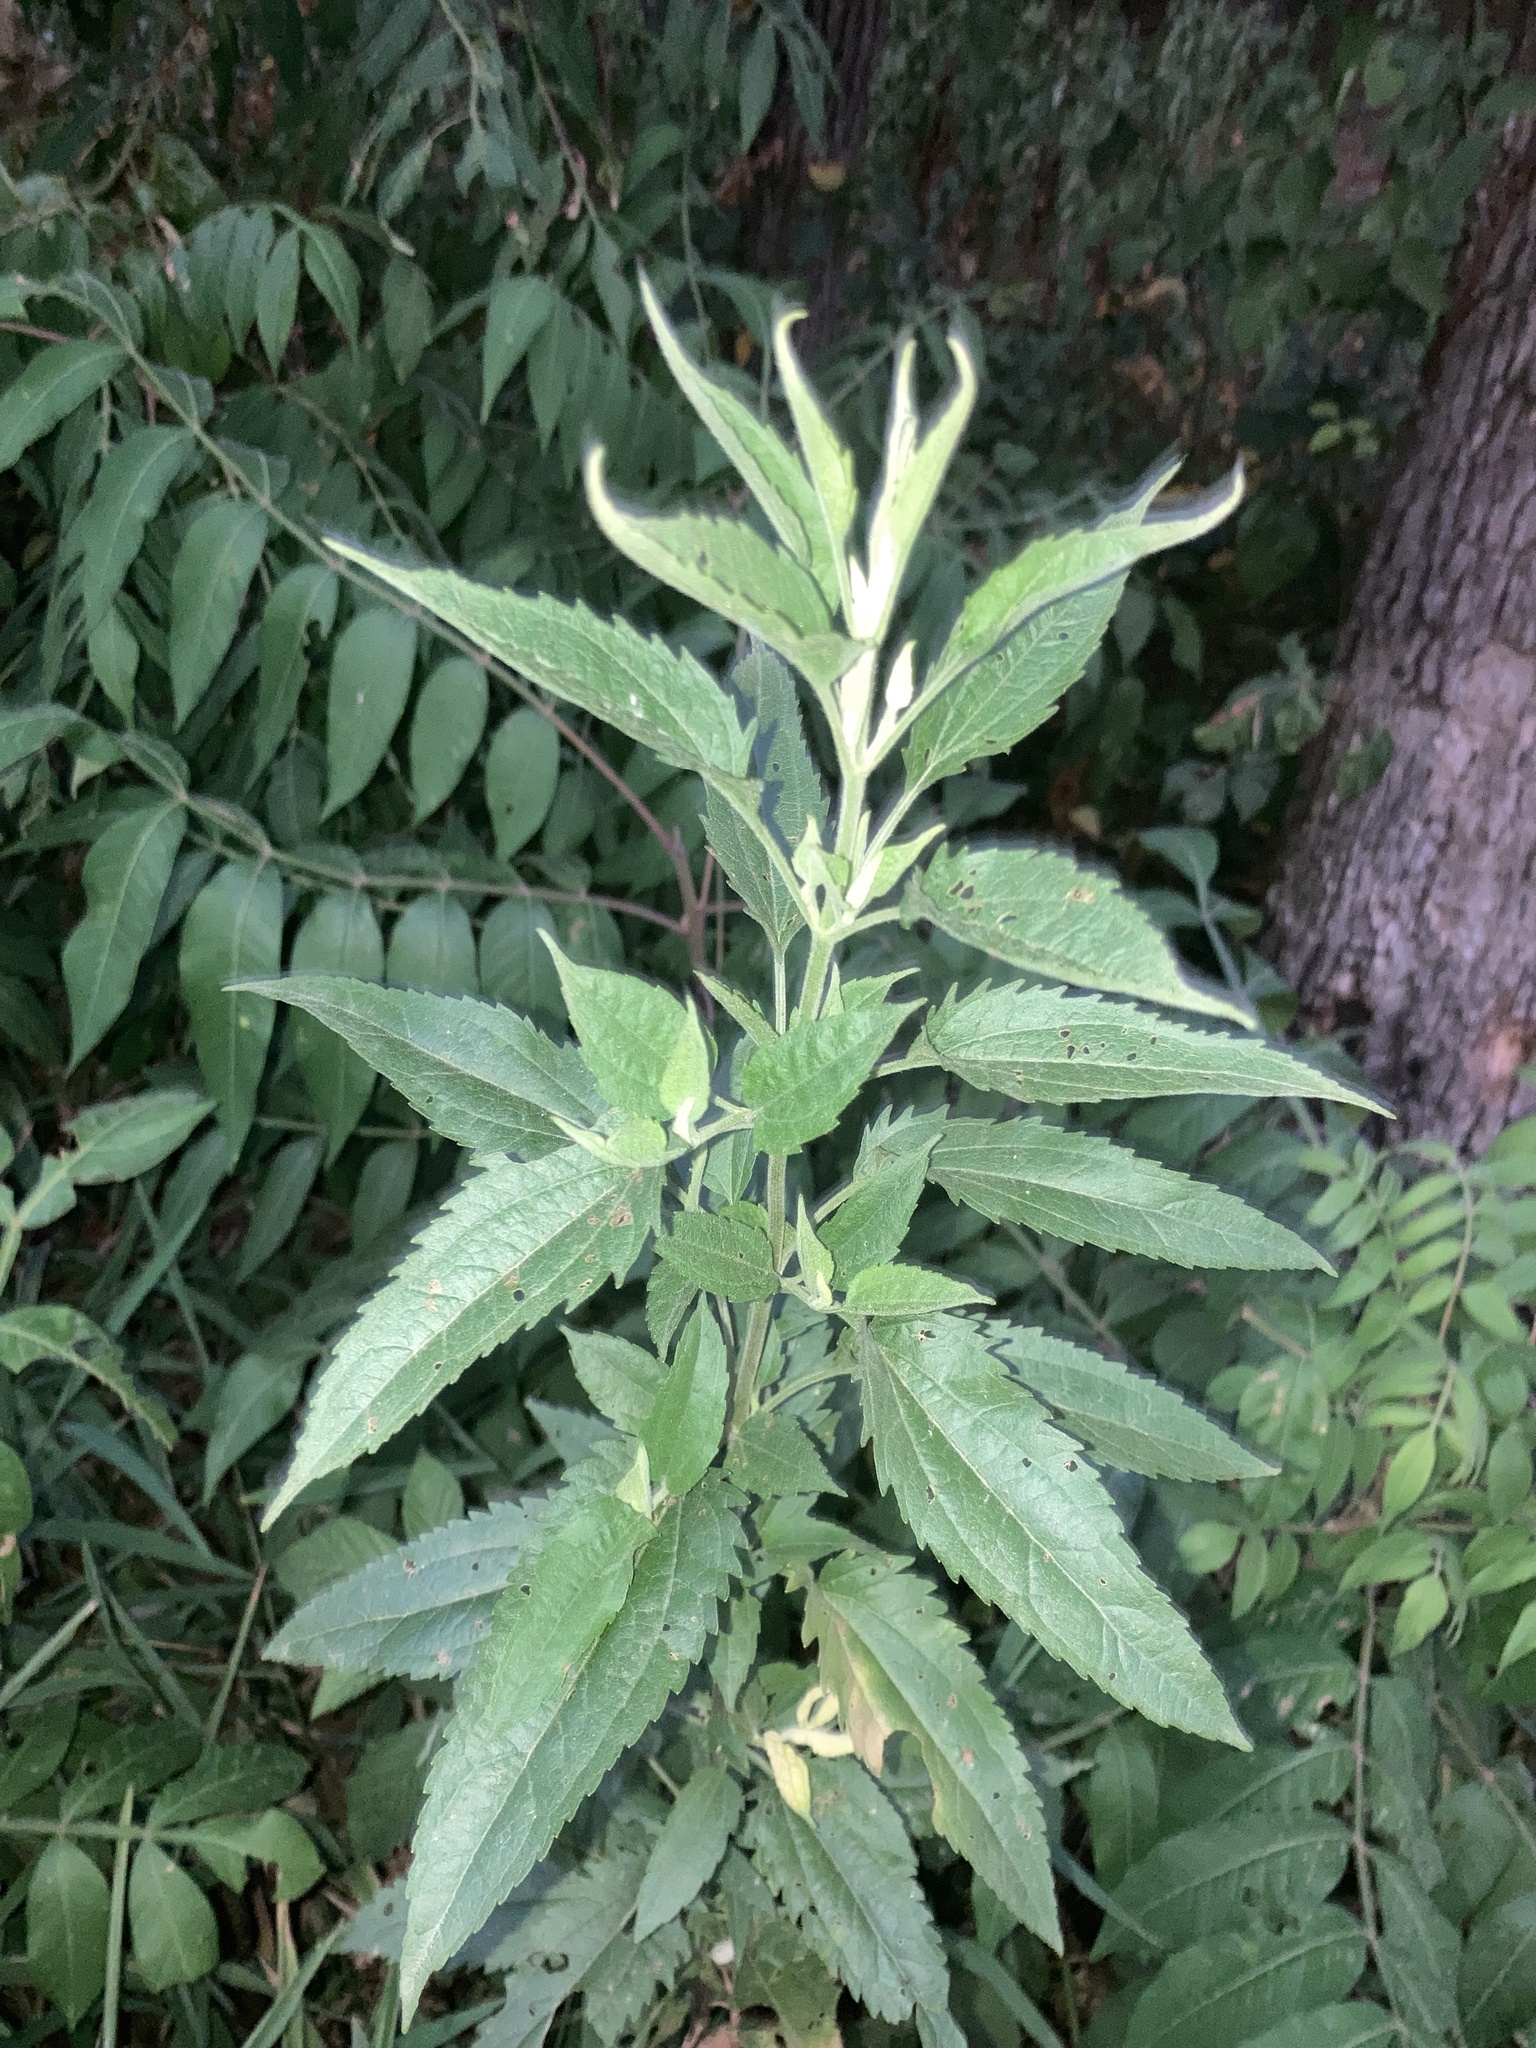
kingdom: Plantae
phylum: Tracheophyta
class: Magnoliopsida
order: Asterales
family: Asteraceae
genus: Eupatorium
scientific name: Eupatorium serotinum
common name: Late boneset
